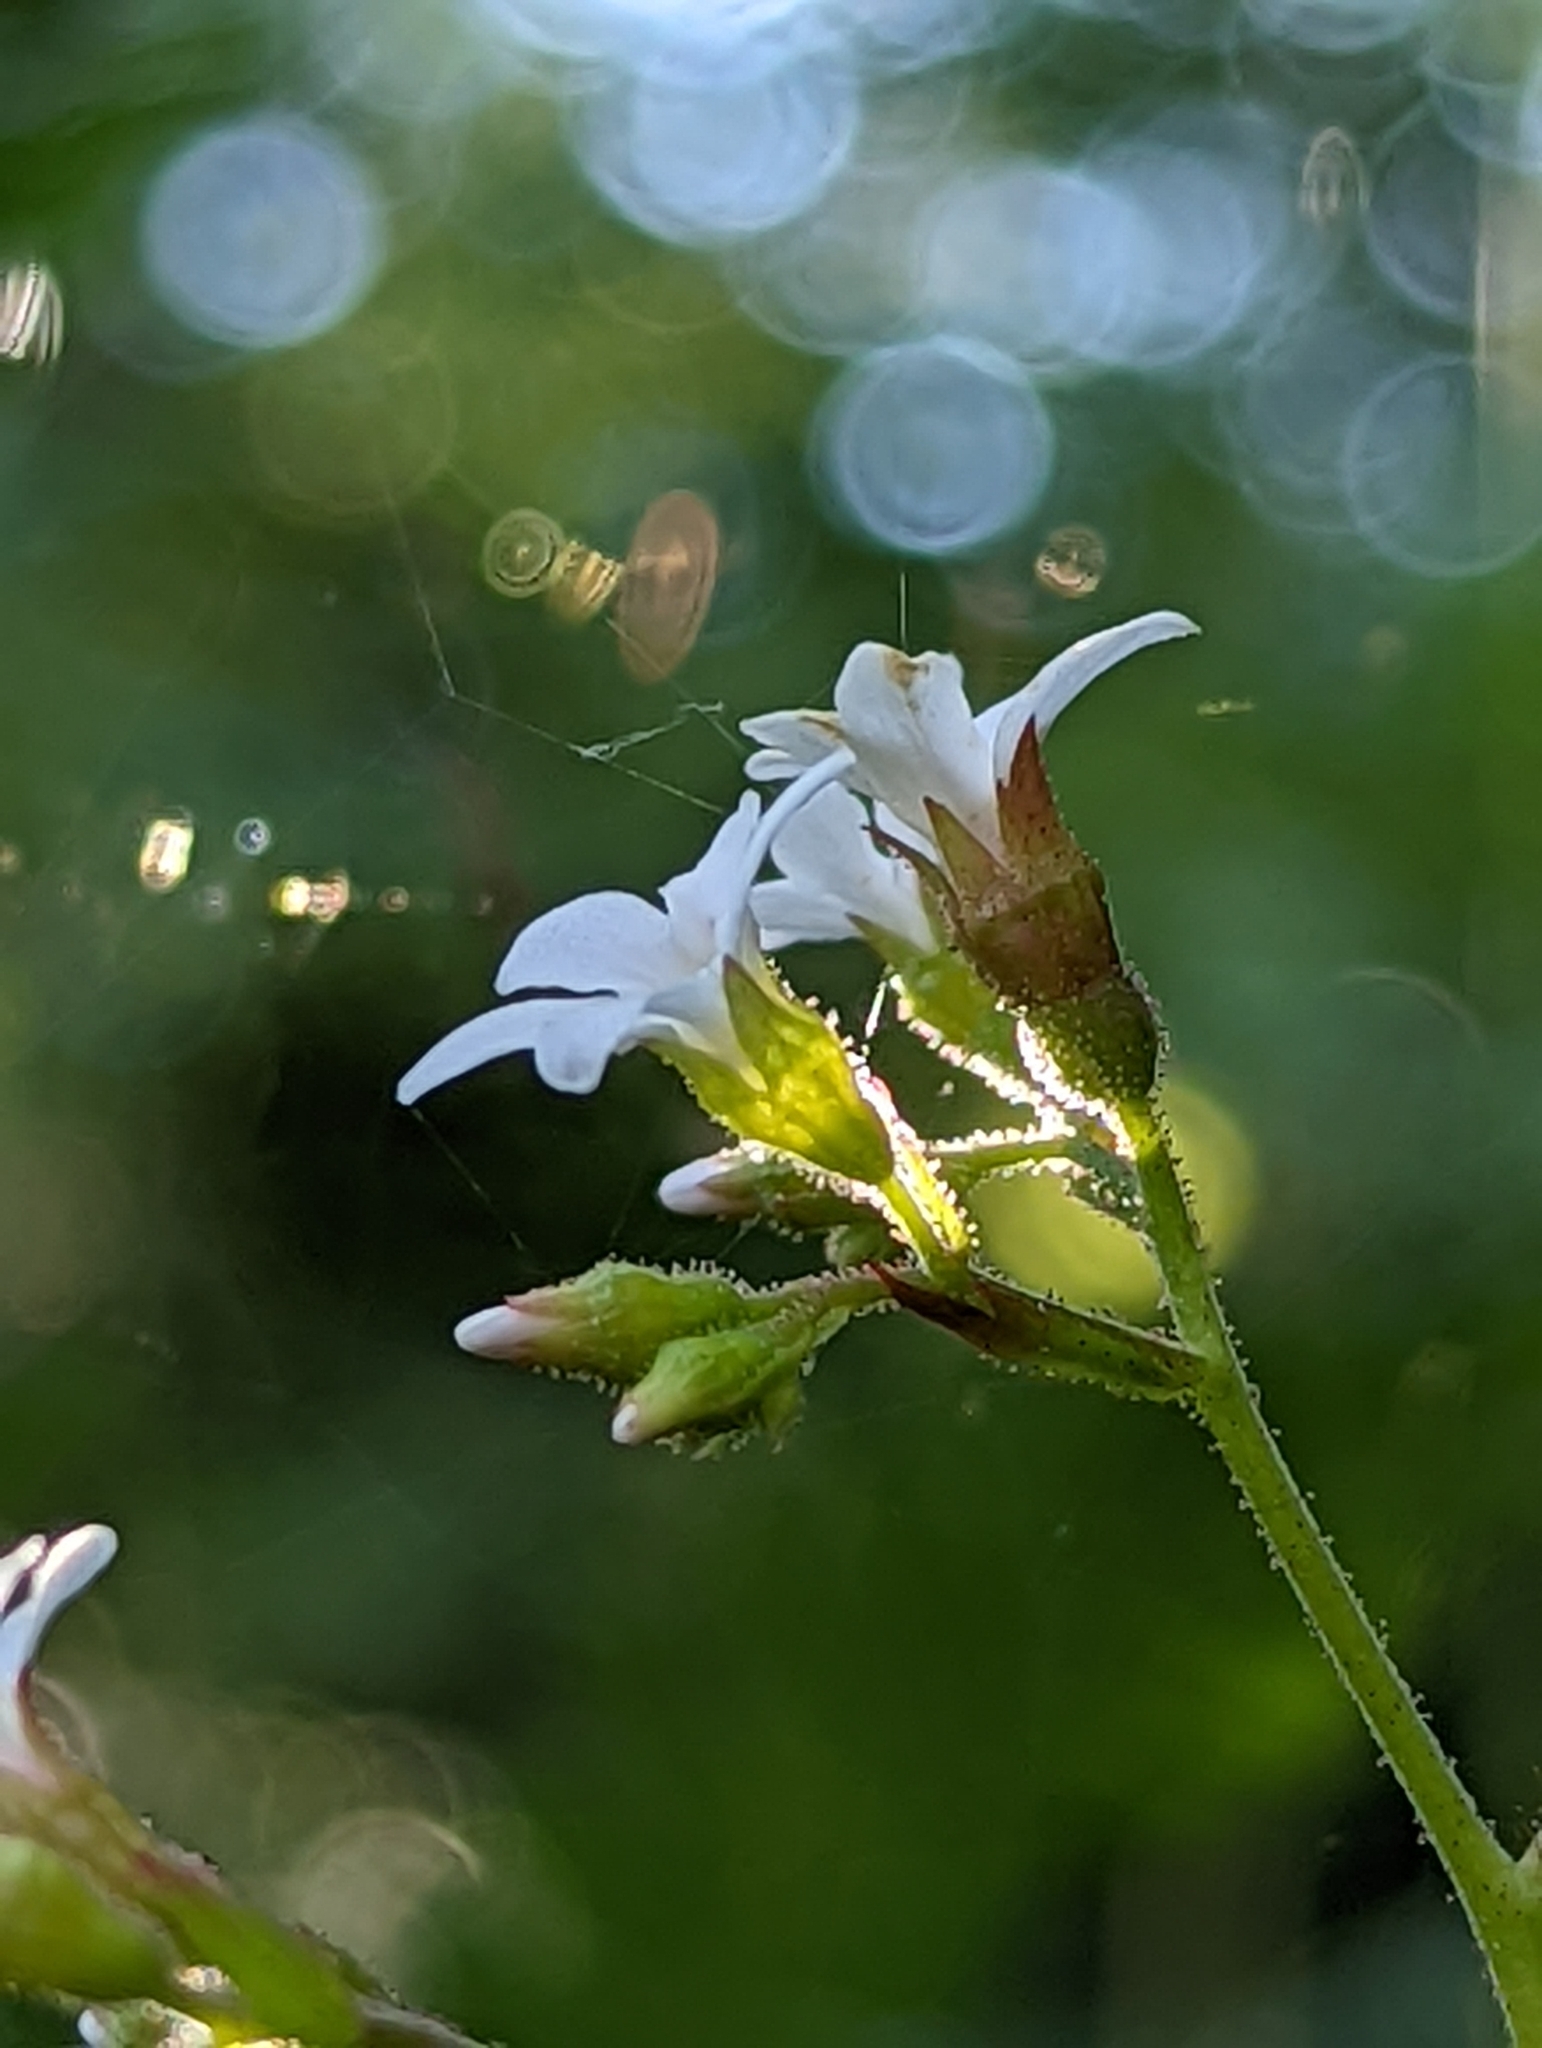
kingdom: Plantae
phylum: Tracheophyta
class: Magnoliopsida
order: Saxifragales
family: Saxifragaceae
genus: Boykinia
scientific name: Boykinia occidentalis
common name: Coast boykinia
